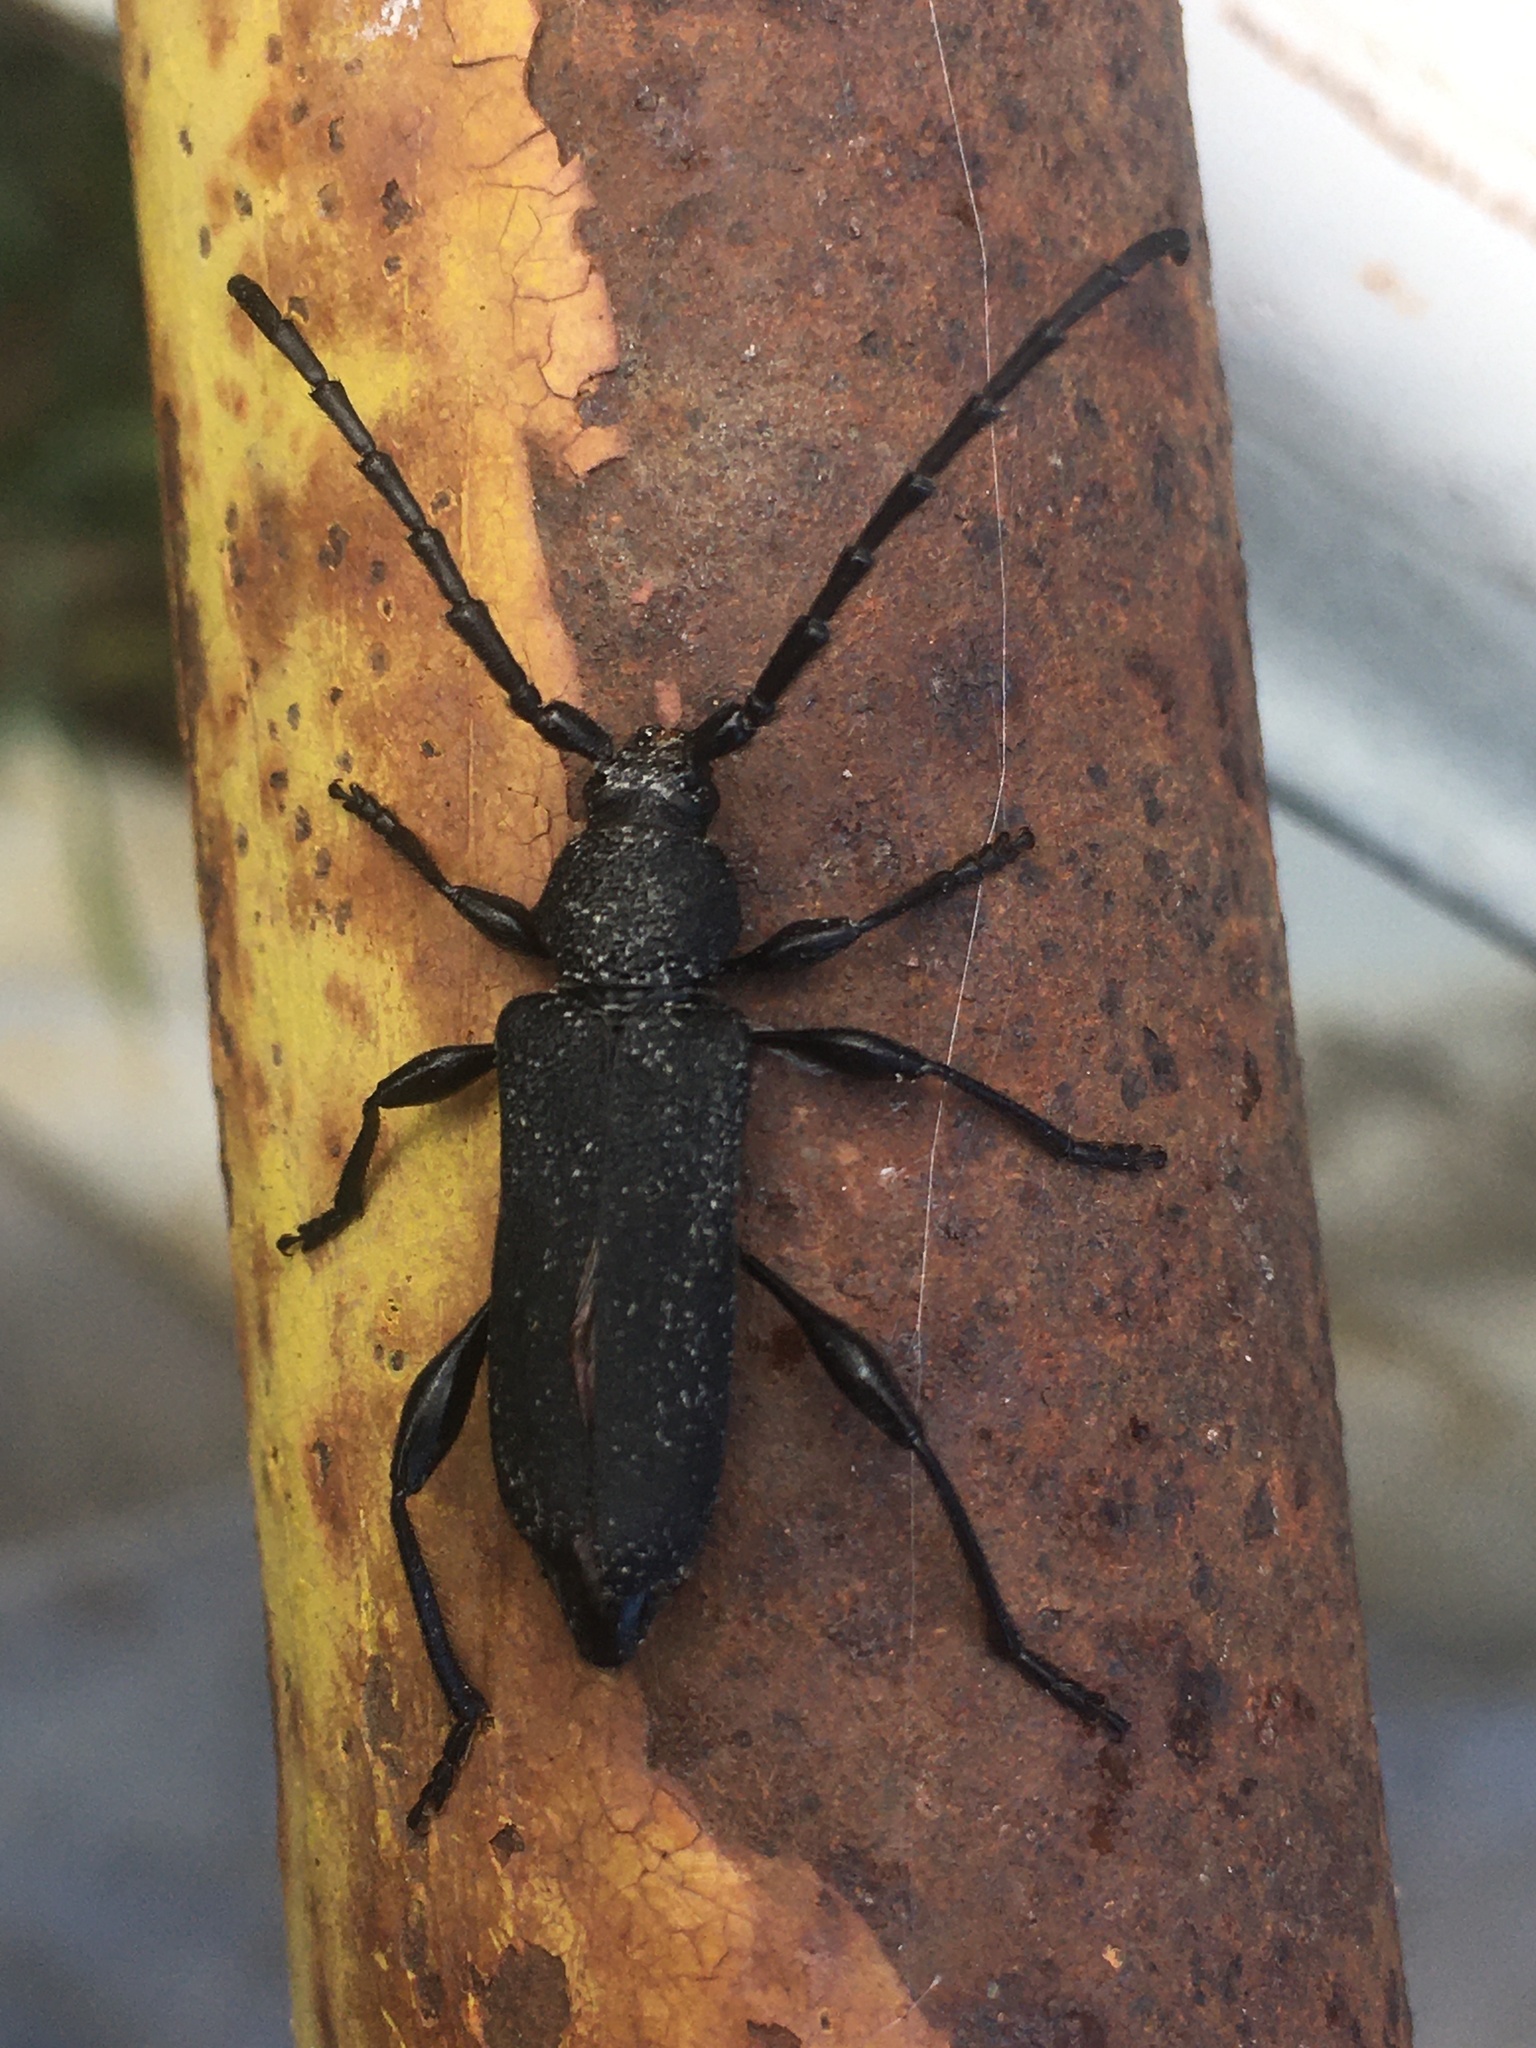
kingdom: Animalia
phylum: Arthropoda
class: Insecta
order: Coleoptera
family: Cerambycidae
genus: Ropalopus
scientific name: Ropalopus clavipes
